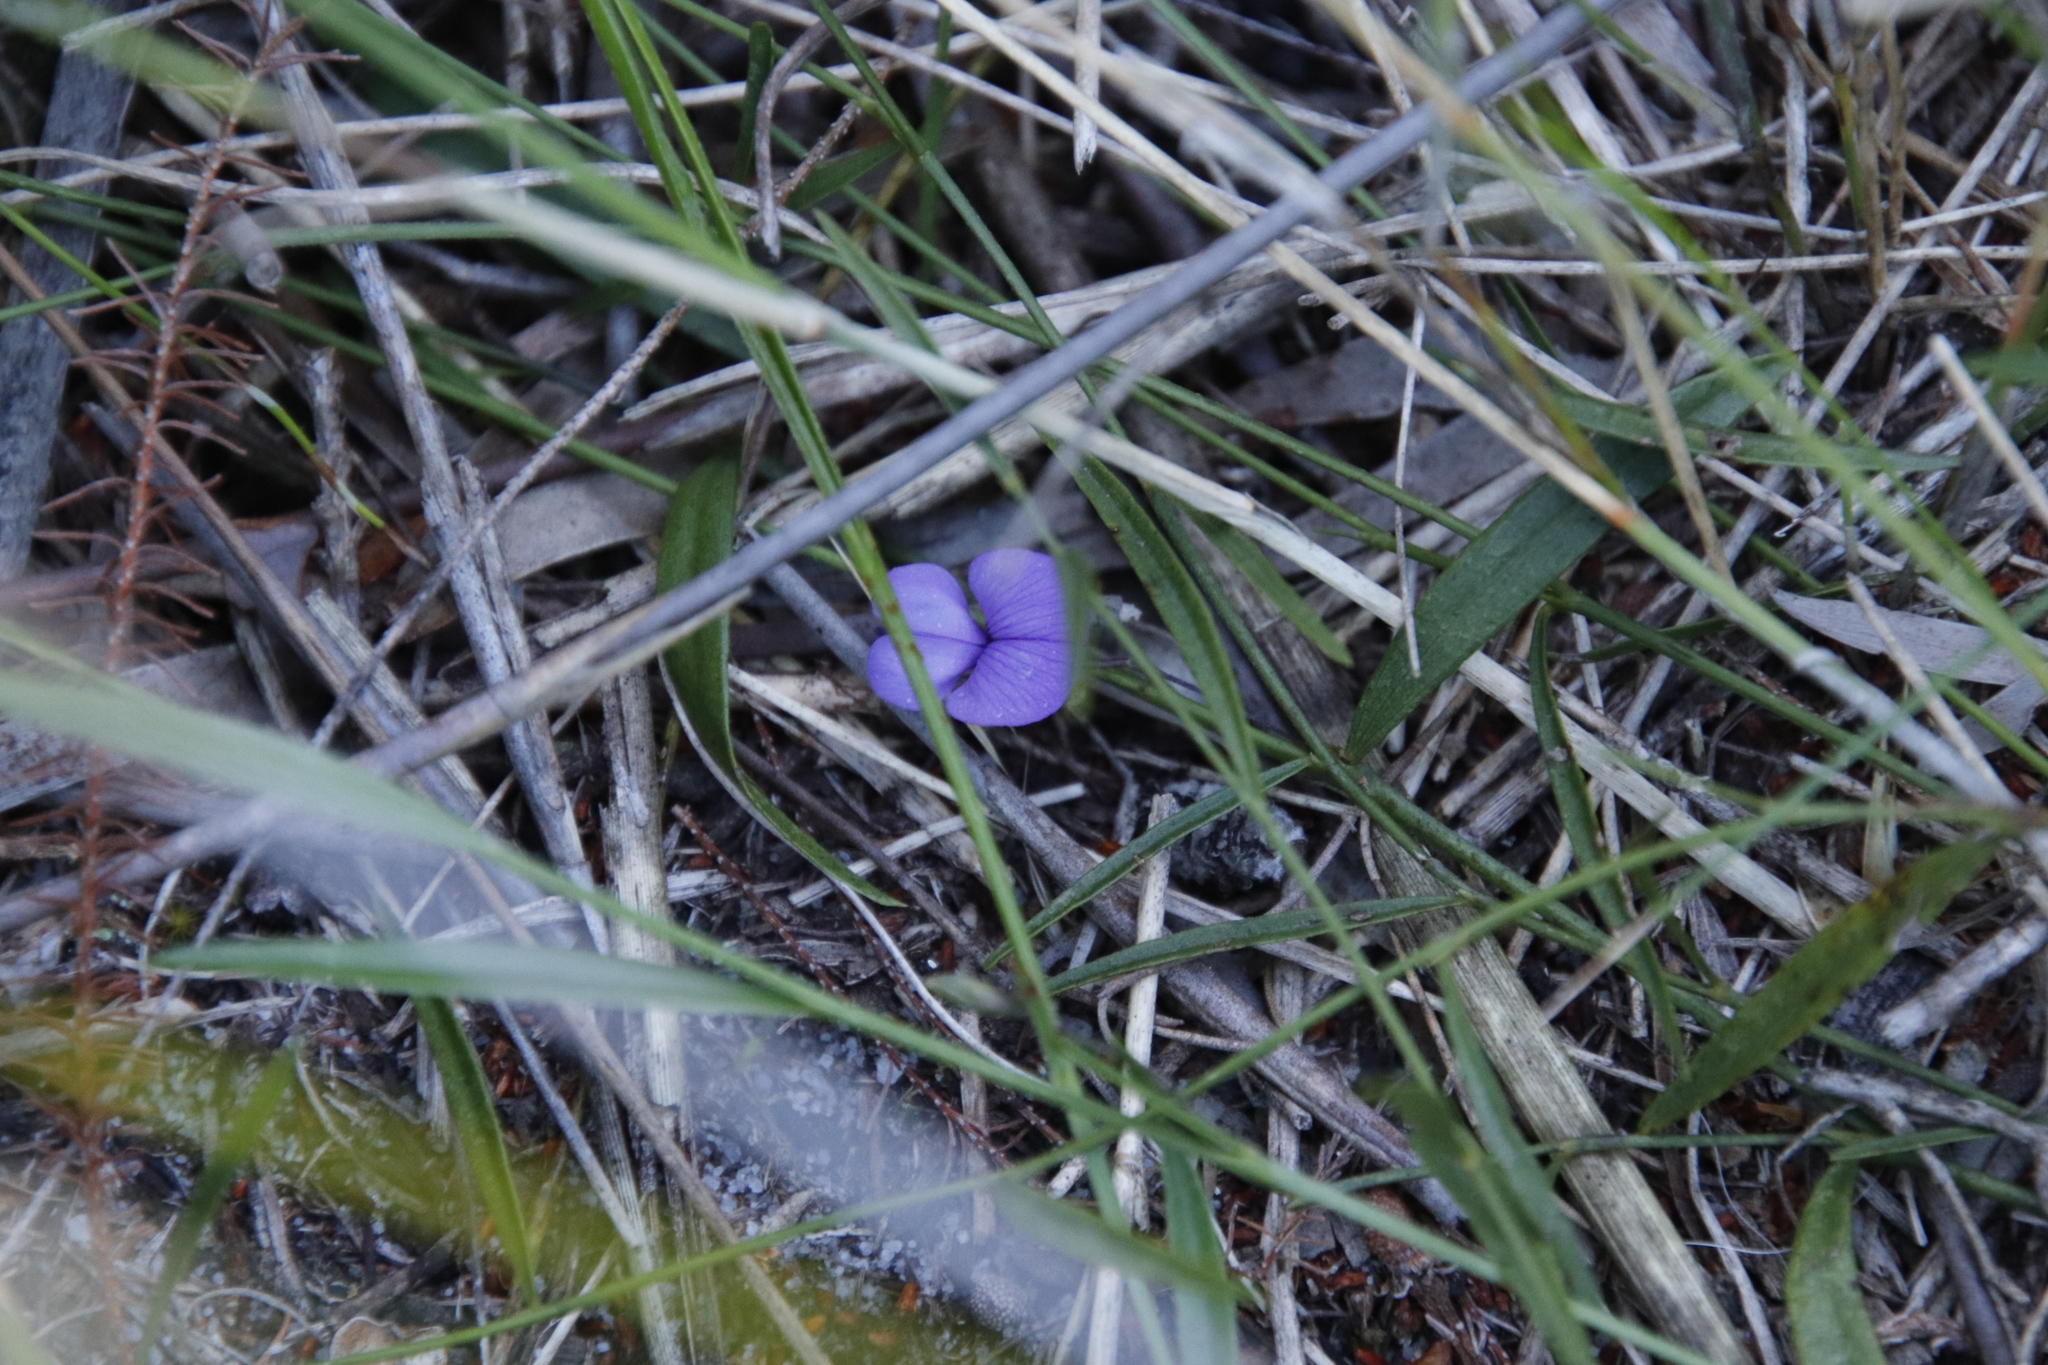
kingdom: Plantae
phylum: Tracheophyta
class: Magnoliopsida
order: Fabales
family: Fabaceae
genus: Psoralea
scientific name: Psoralea laxa
